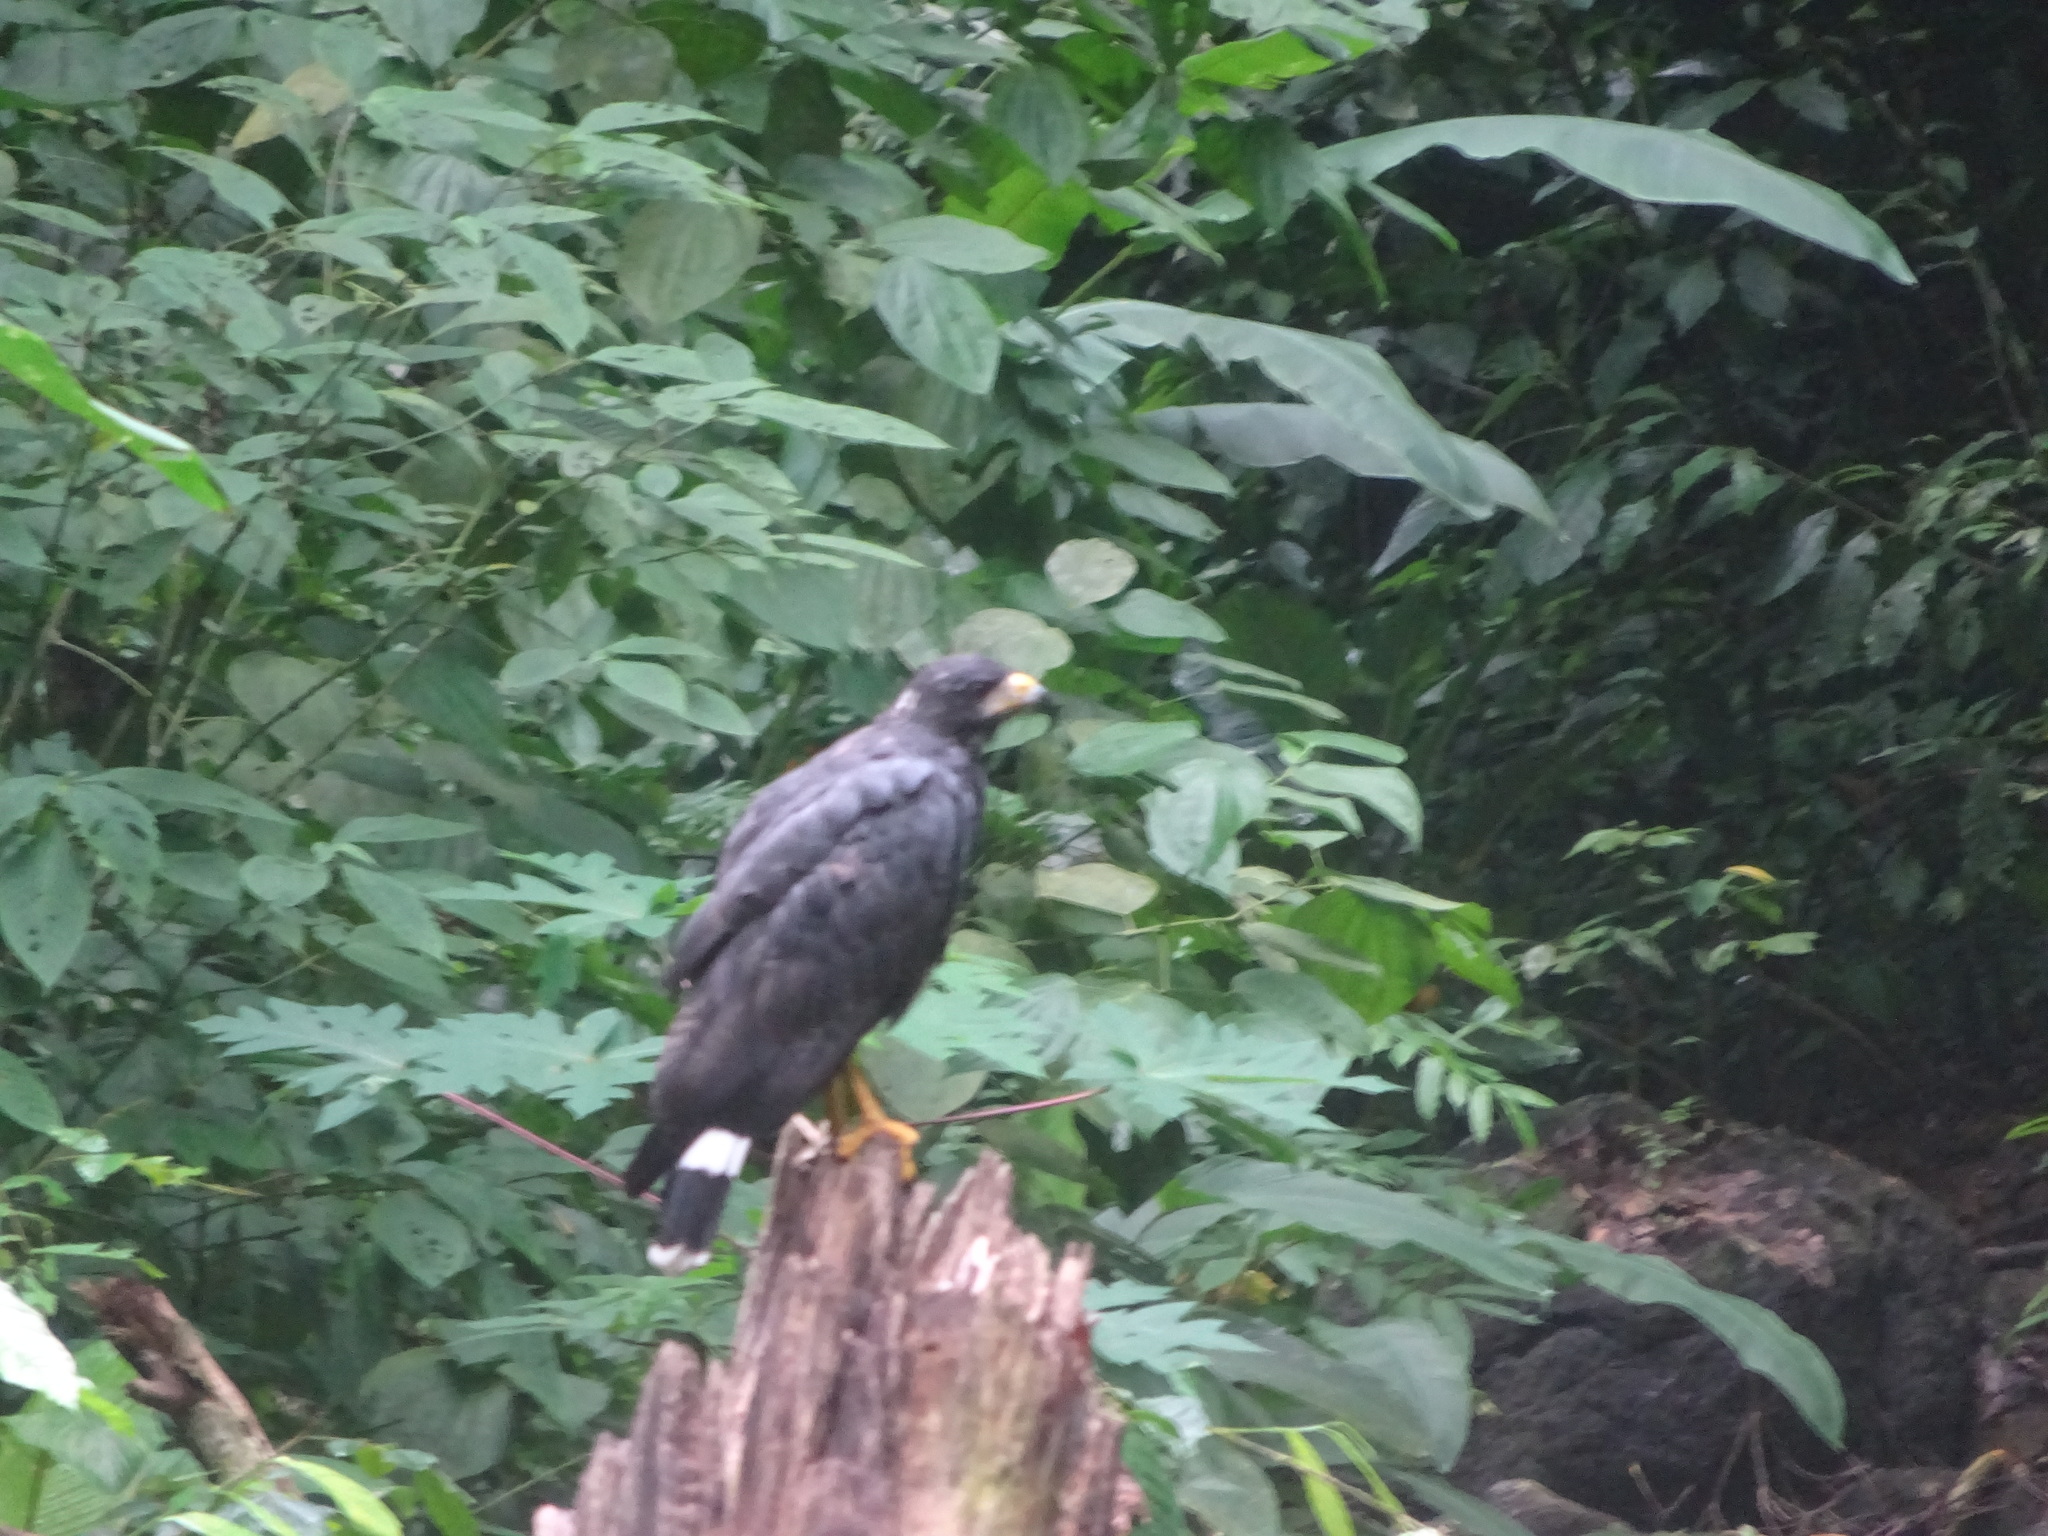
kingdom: Animalia
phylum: Chordata
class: Aves
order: Accipitriformes
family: Accipitridae
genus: Buteogallus
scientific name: Buteogallus anthracinus
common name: Common black hawk
